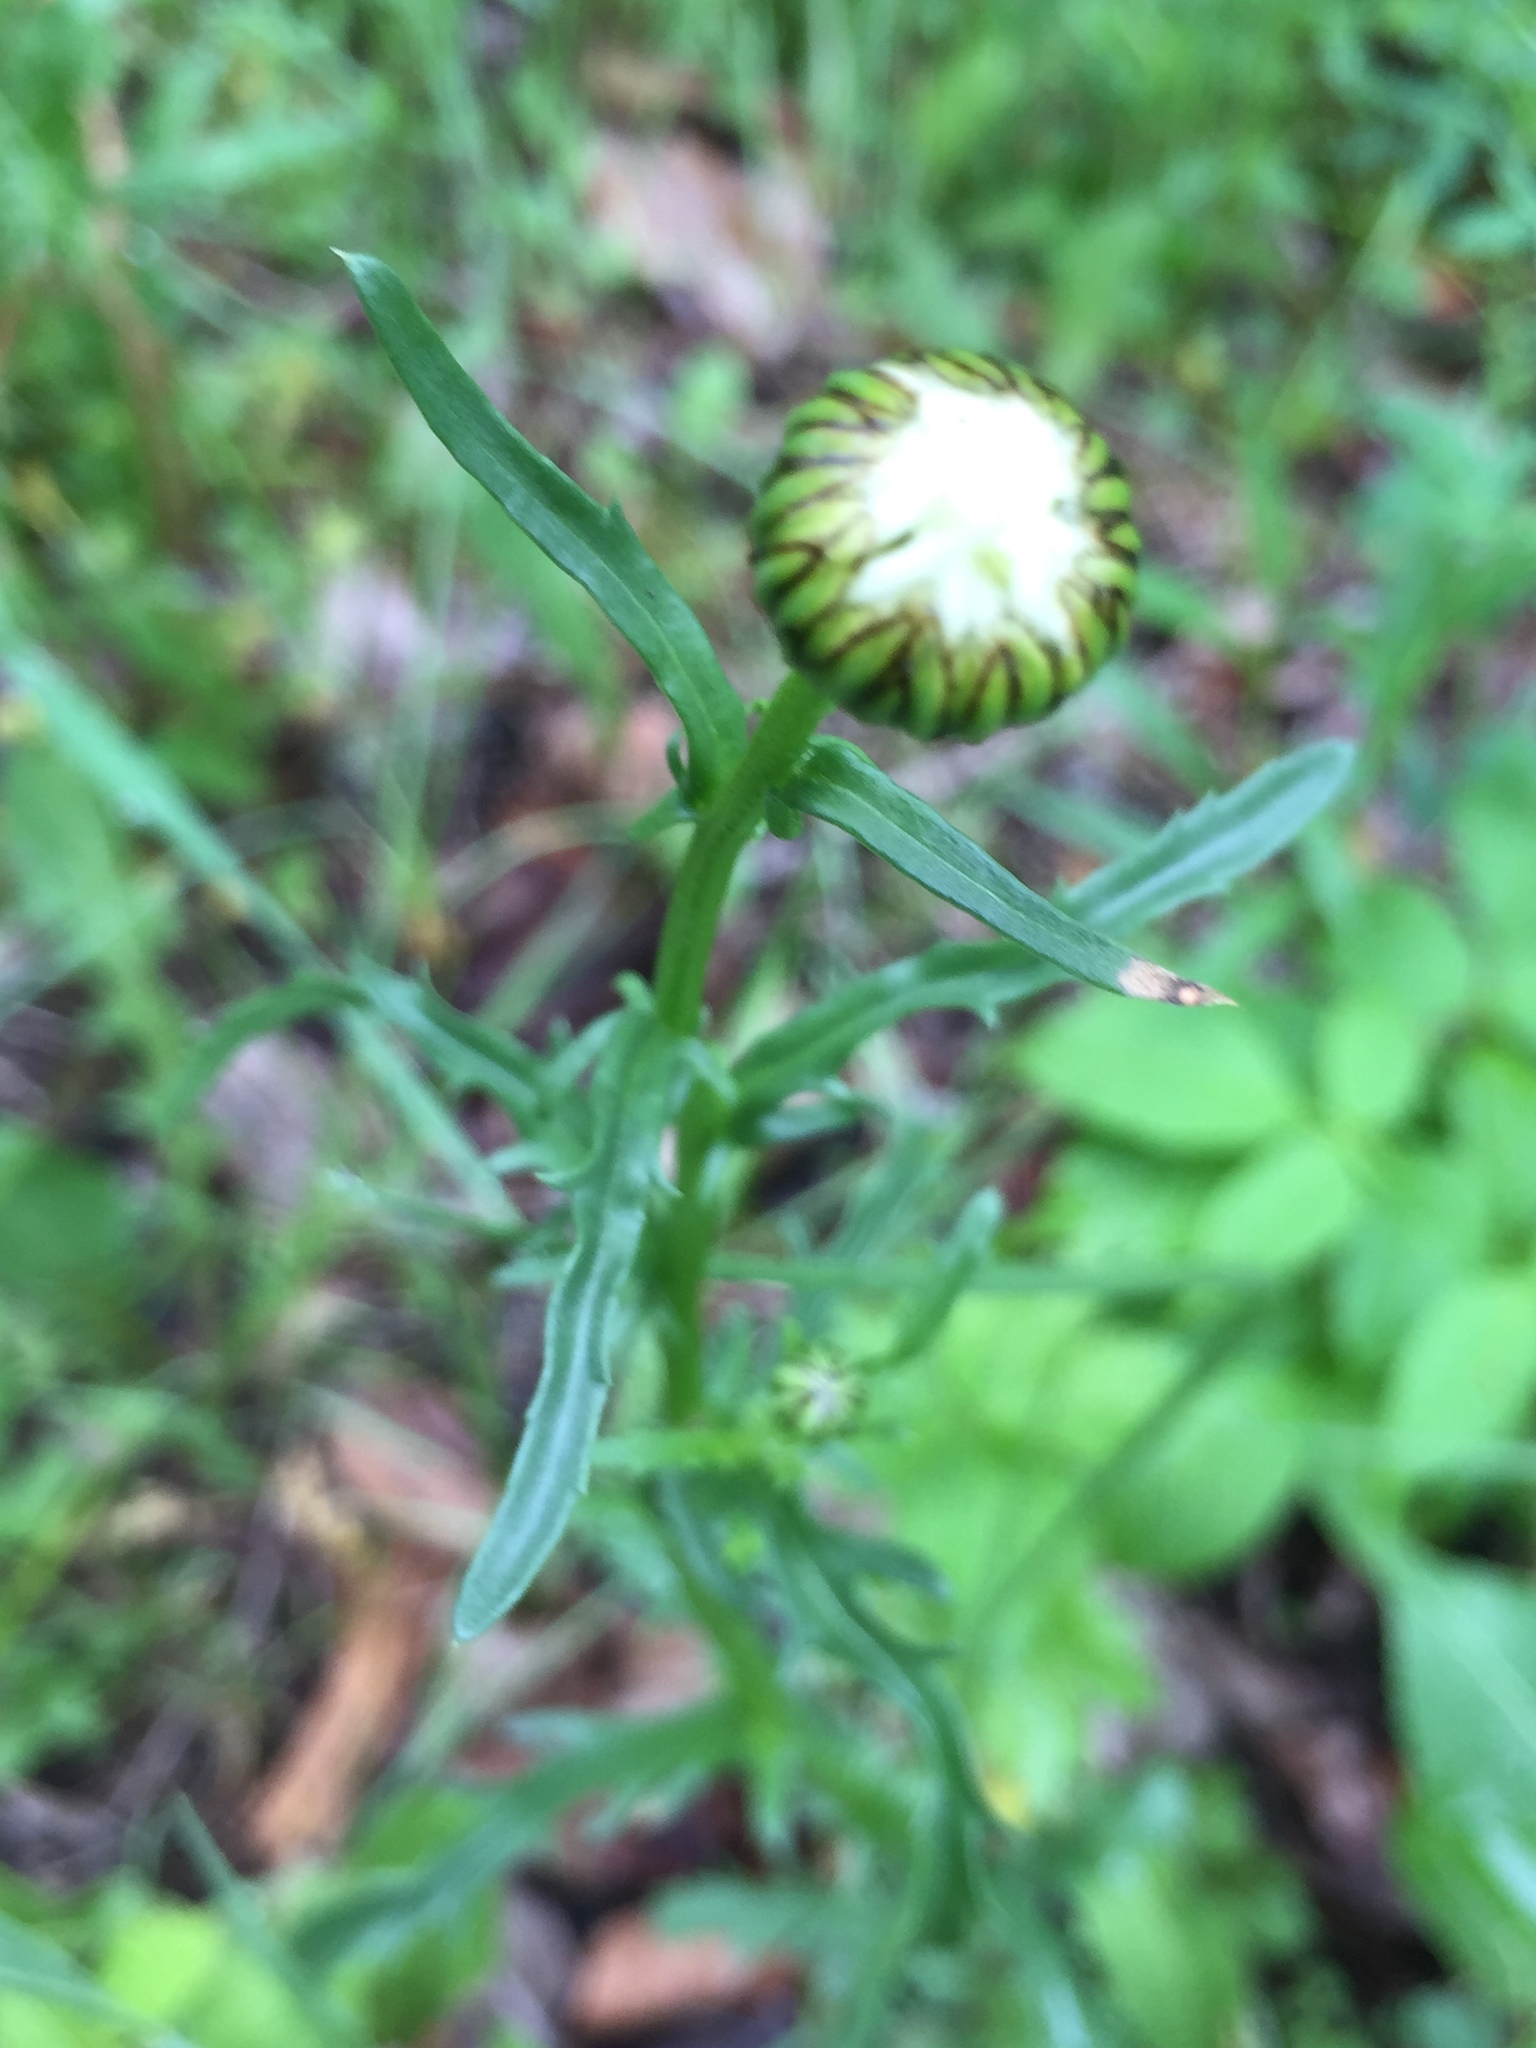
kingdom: Plantae
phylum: Tracheophyta
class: Magnoliopsida
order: Asterales
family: Asteraceae
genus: Leucanthemum
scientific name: Leucanthemum vulgare
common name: Oxeye daisy
